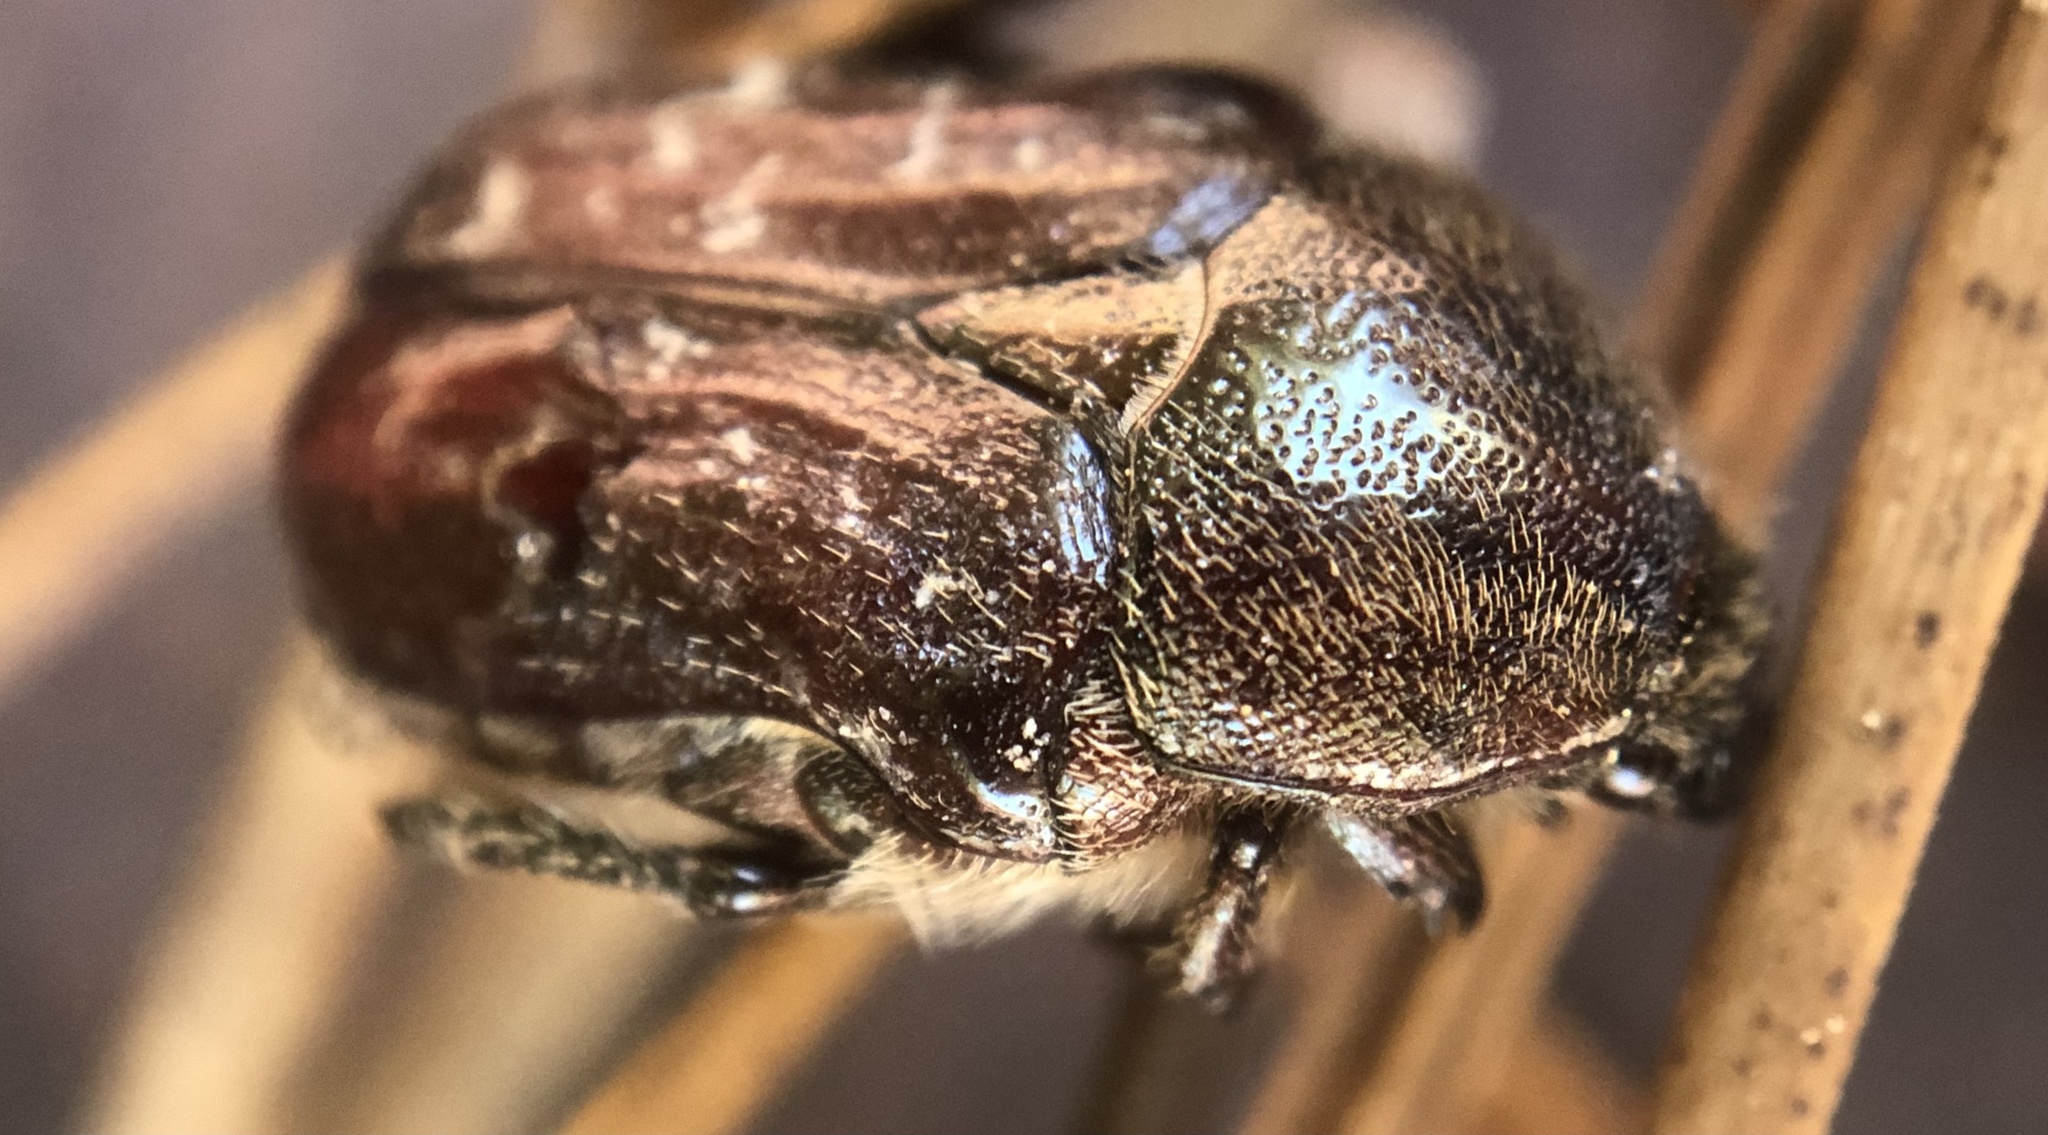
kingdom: Animalia
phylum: Arthropoda
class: Insecta
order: Coleoptera
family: Scarabaeidae
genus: Euphoria
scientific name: Euphoria sepulcralis
